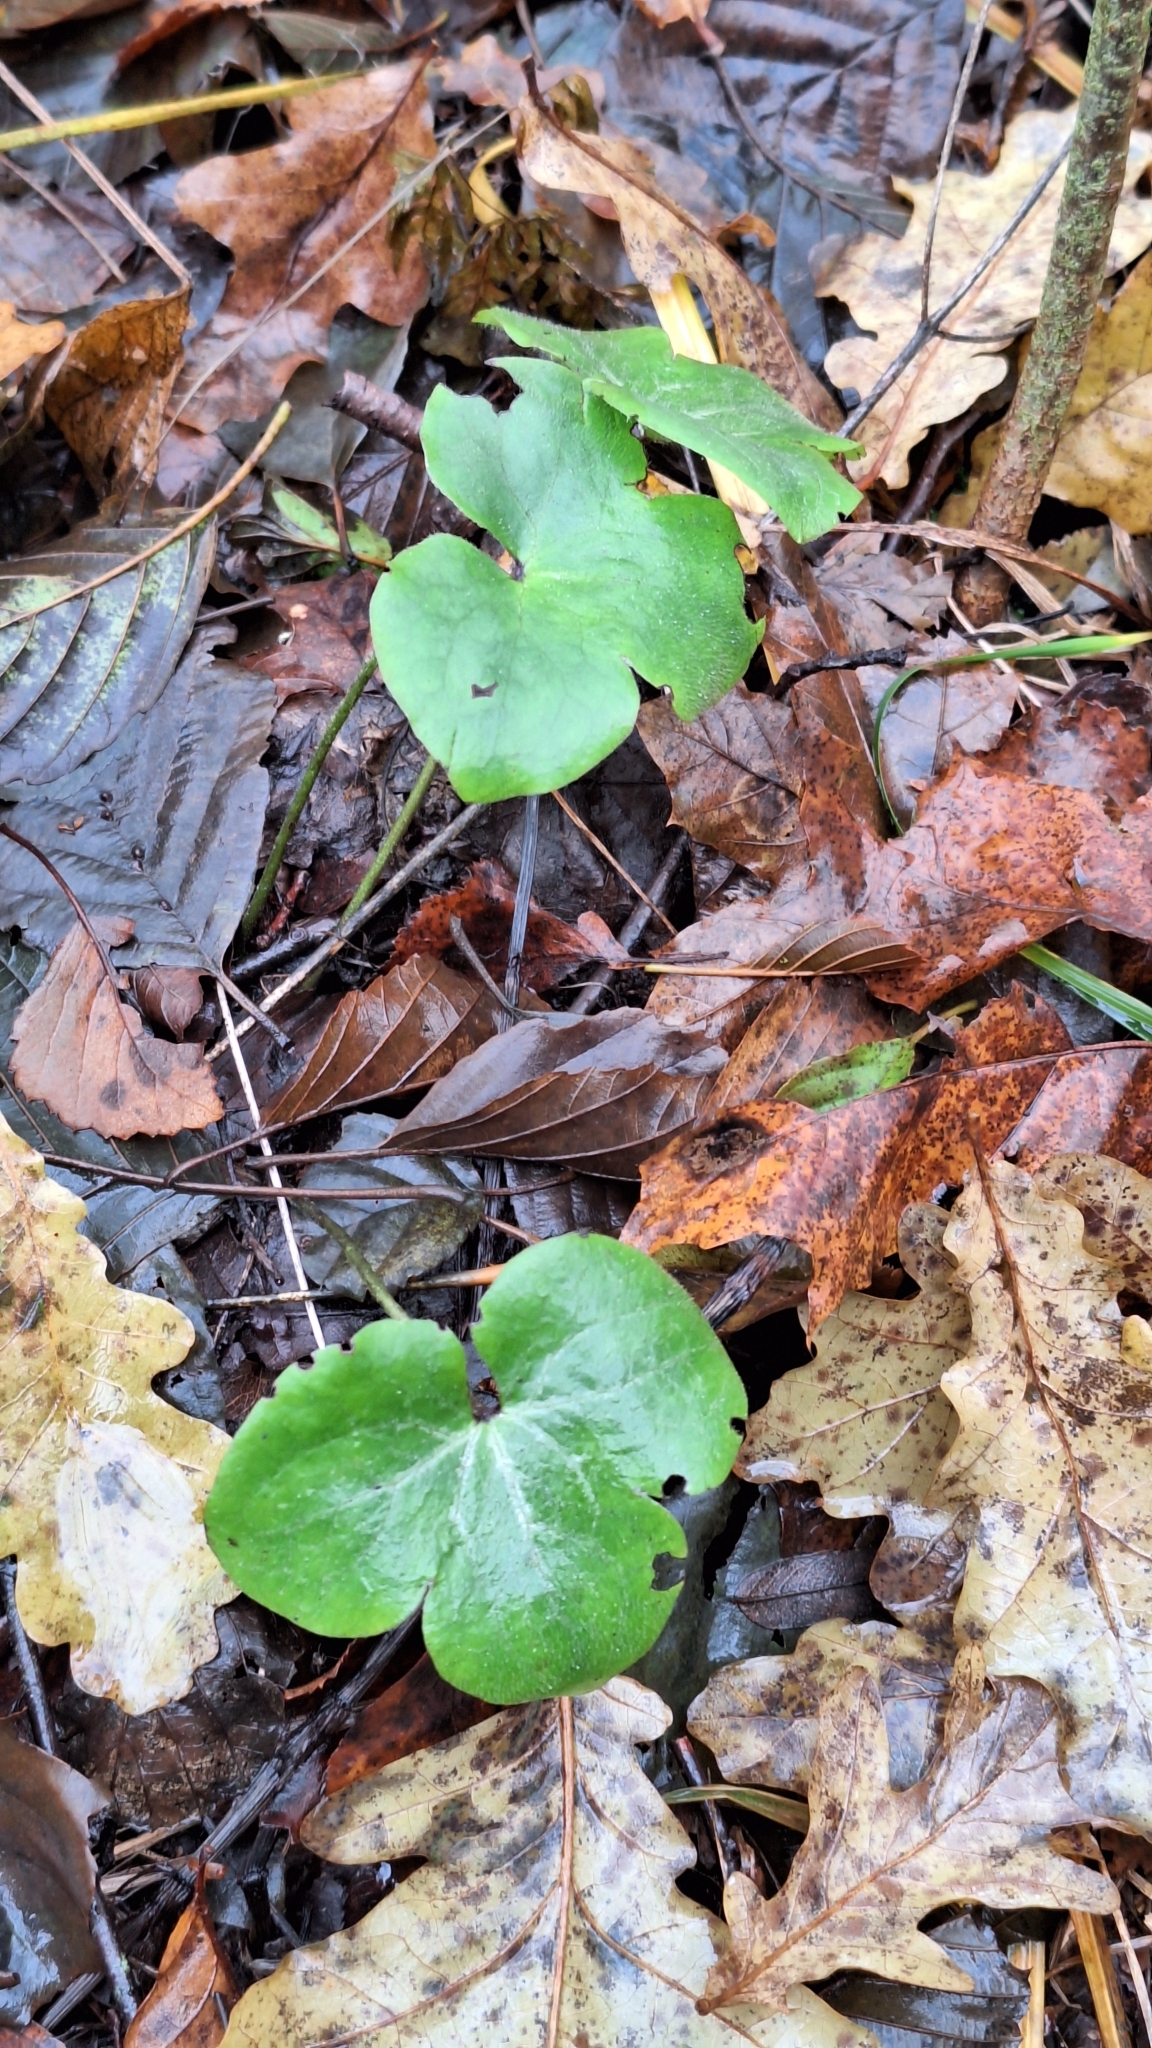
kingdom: Plantae
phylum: Tracheophyta
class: Magnoliopsida
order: Ranunculales
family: Ranunculaceae
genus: Hepatica
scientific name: Hepatica nobilis
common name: Liverleaf
